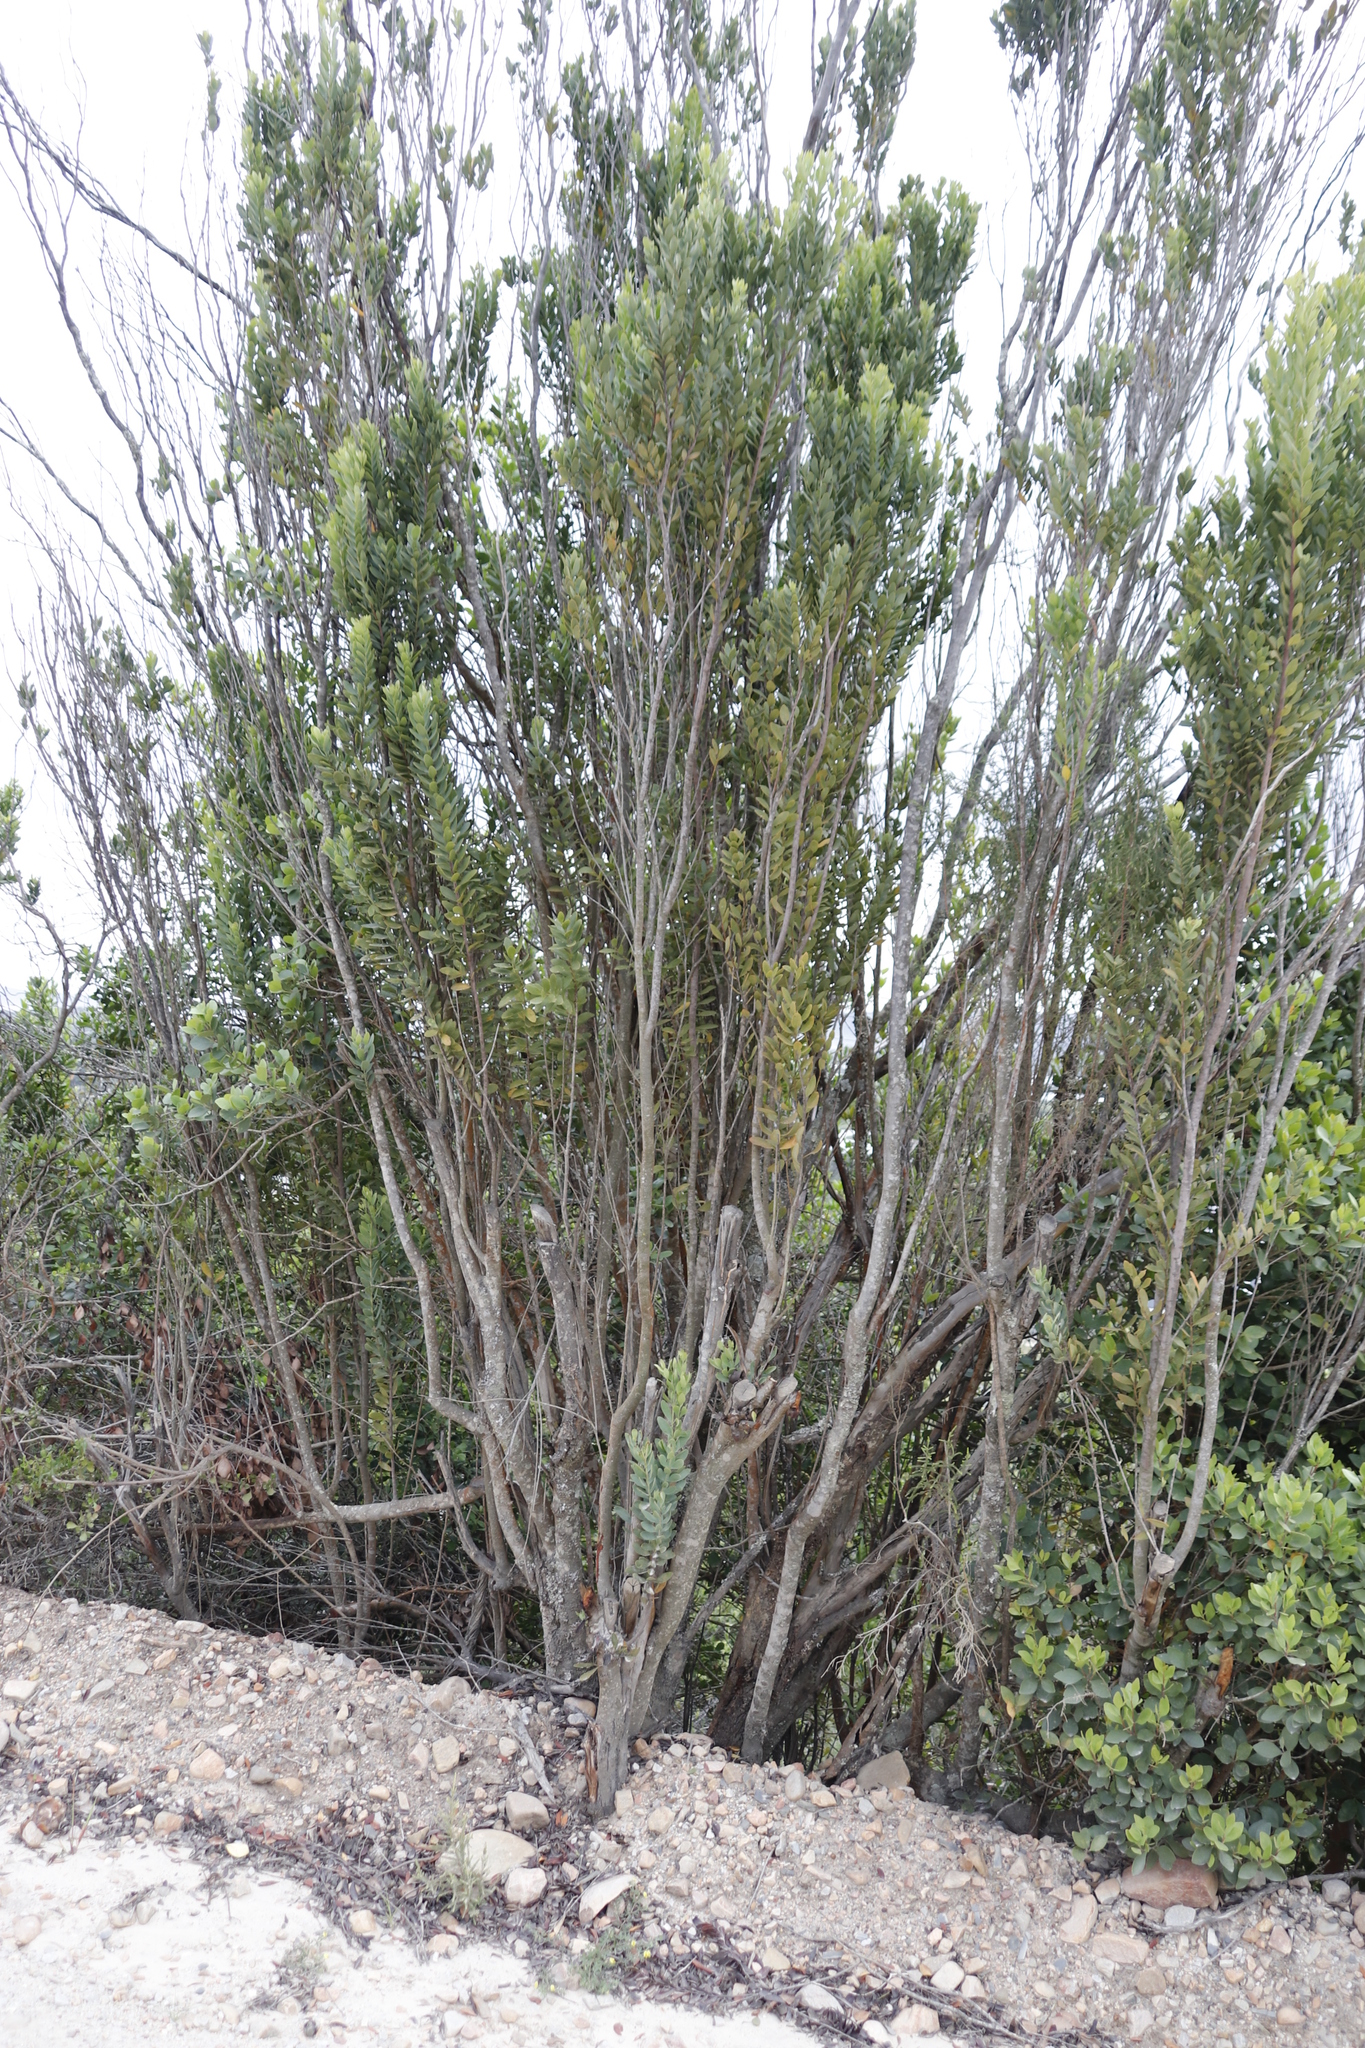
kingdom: Plantae
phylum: Tracheophyta
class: Magnoliopsida
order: Santalales
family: Santalaceae
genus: Osyris
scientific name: Osyris compressa
